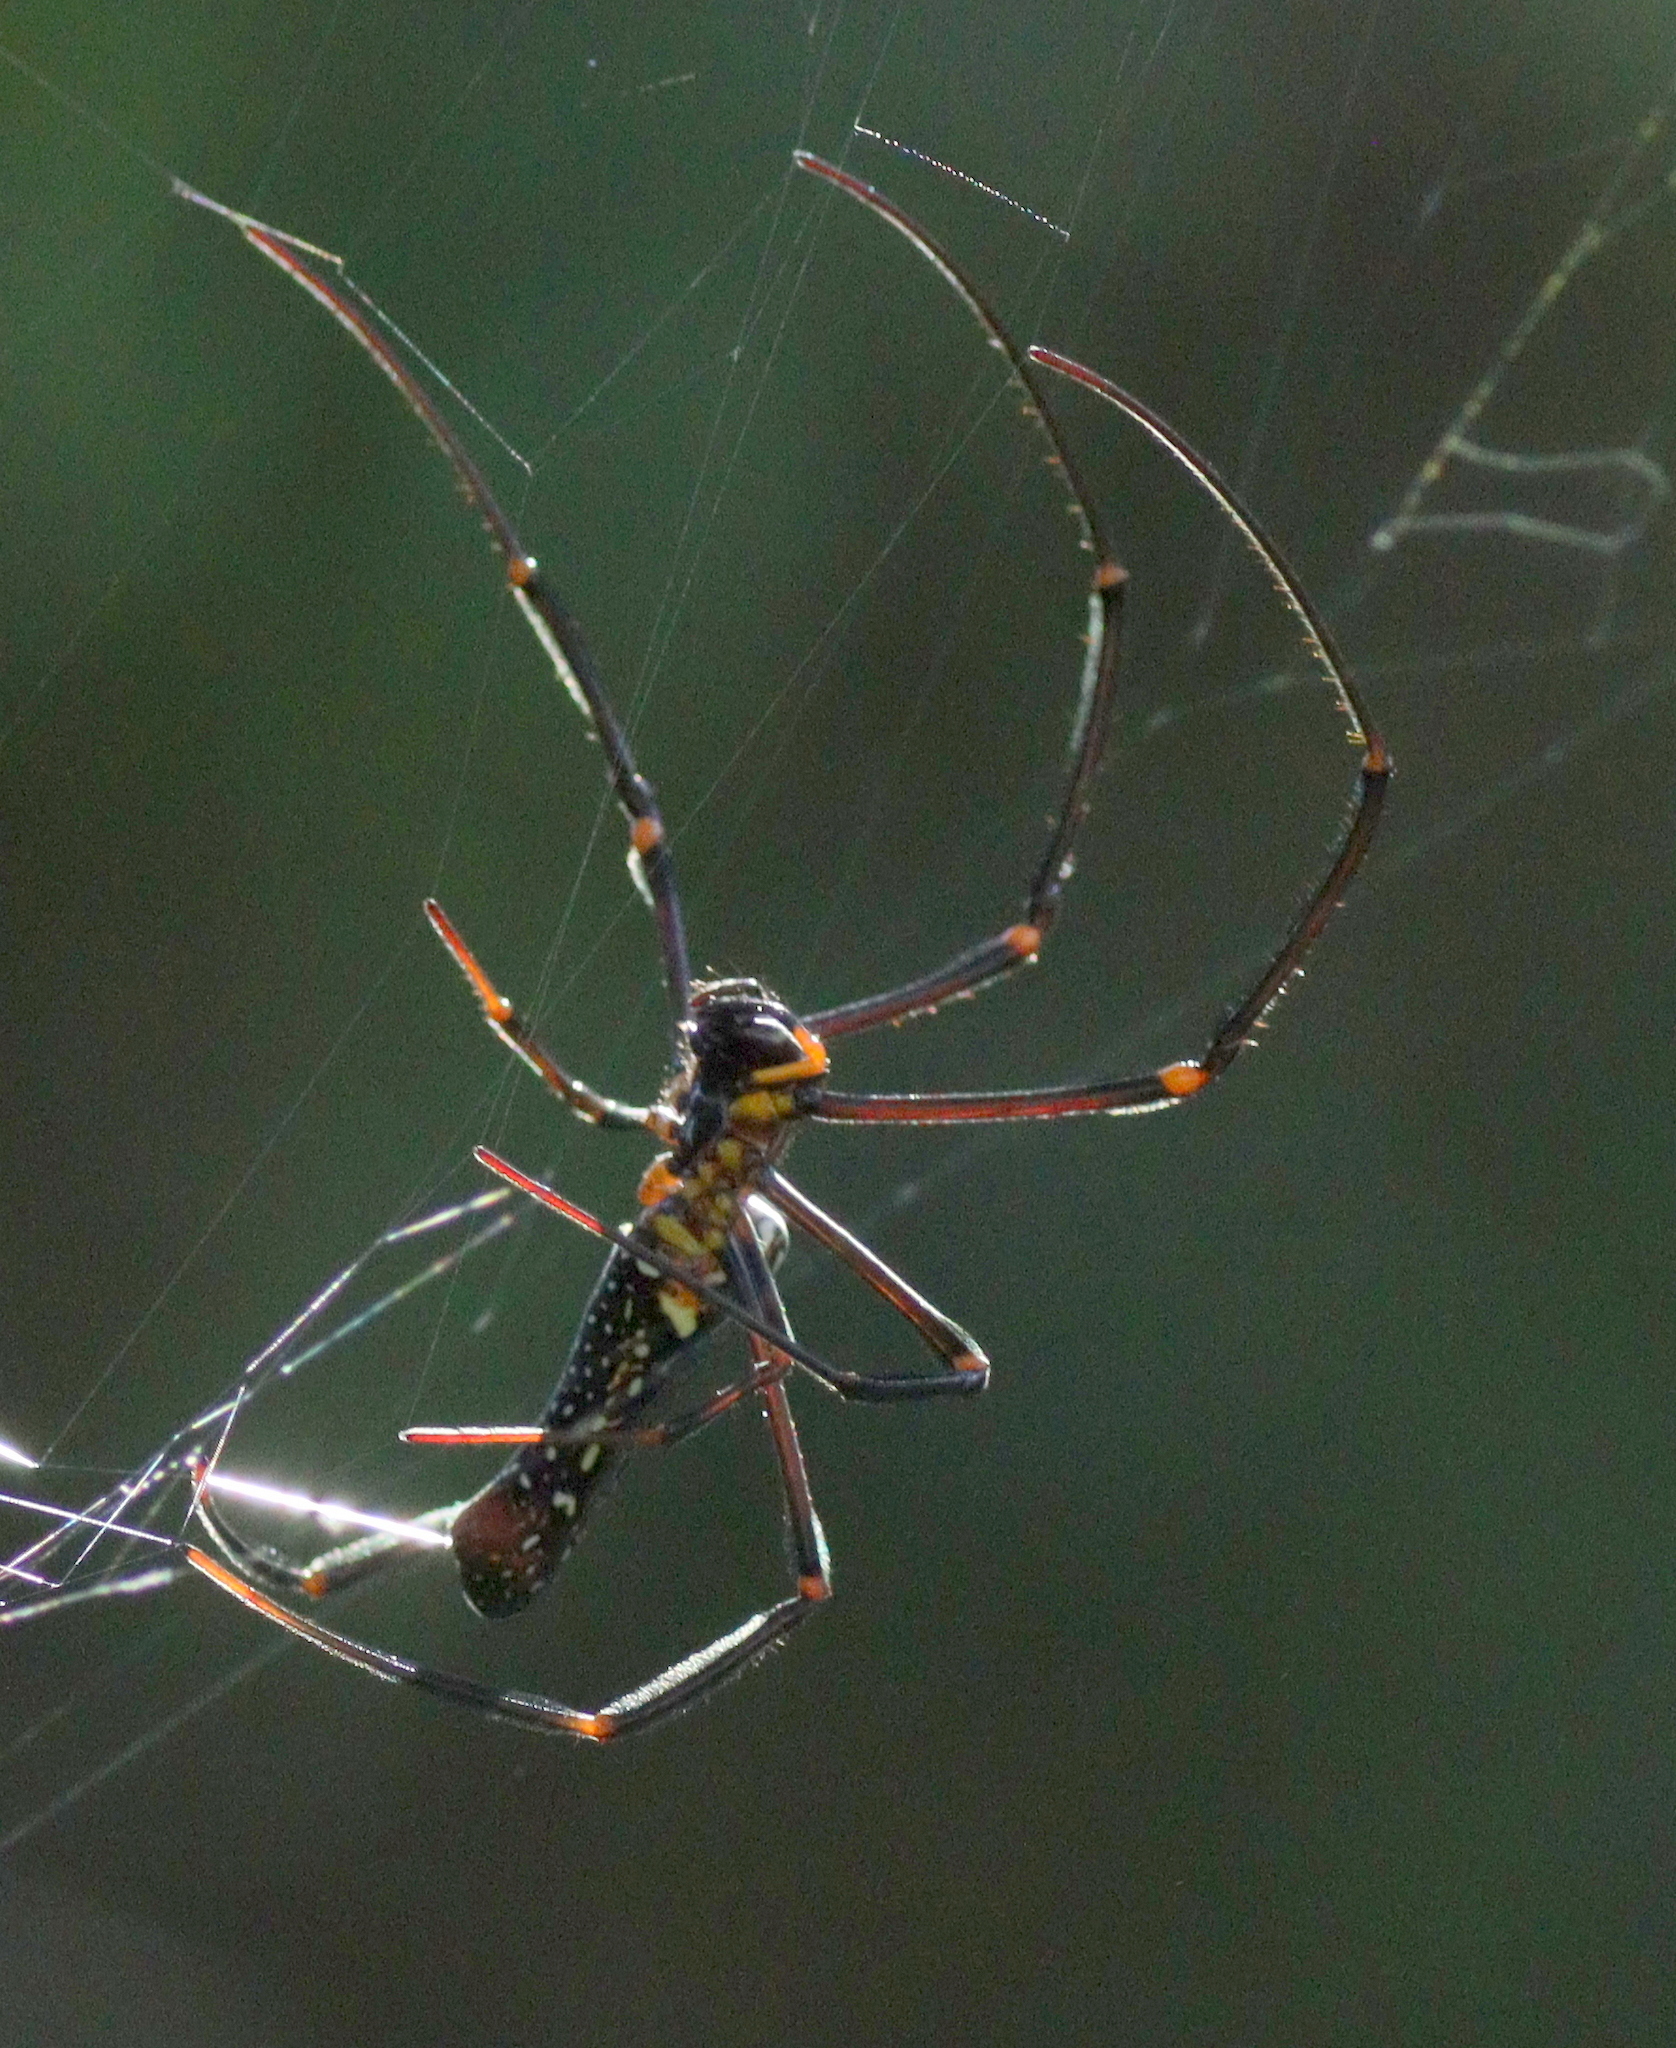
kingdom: Animalia
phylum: Arthropoda
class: Arachnida
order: Araneae
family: Araneidae
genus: Nephila
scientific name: Nephila pilipes
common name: Giant golden orb weaver
